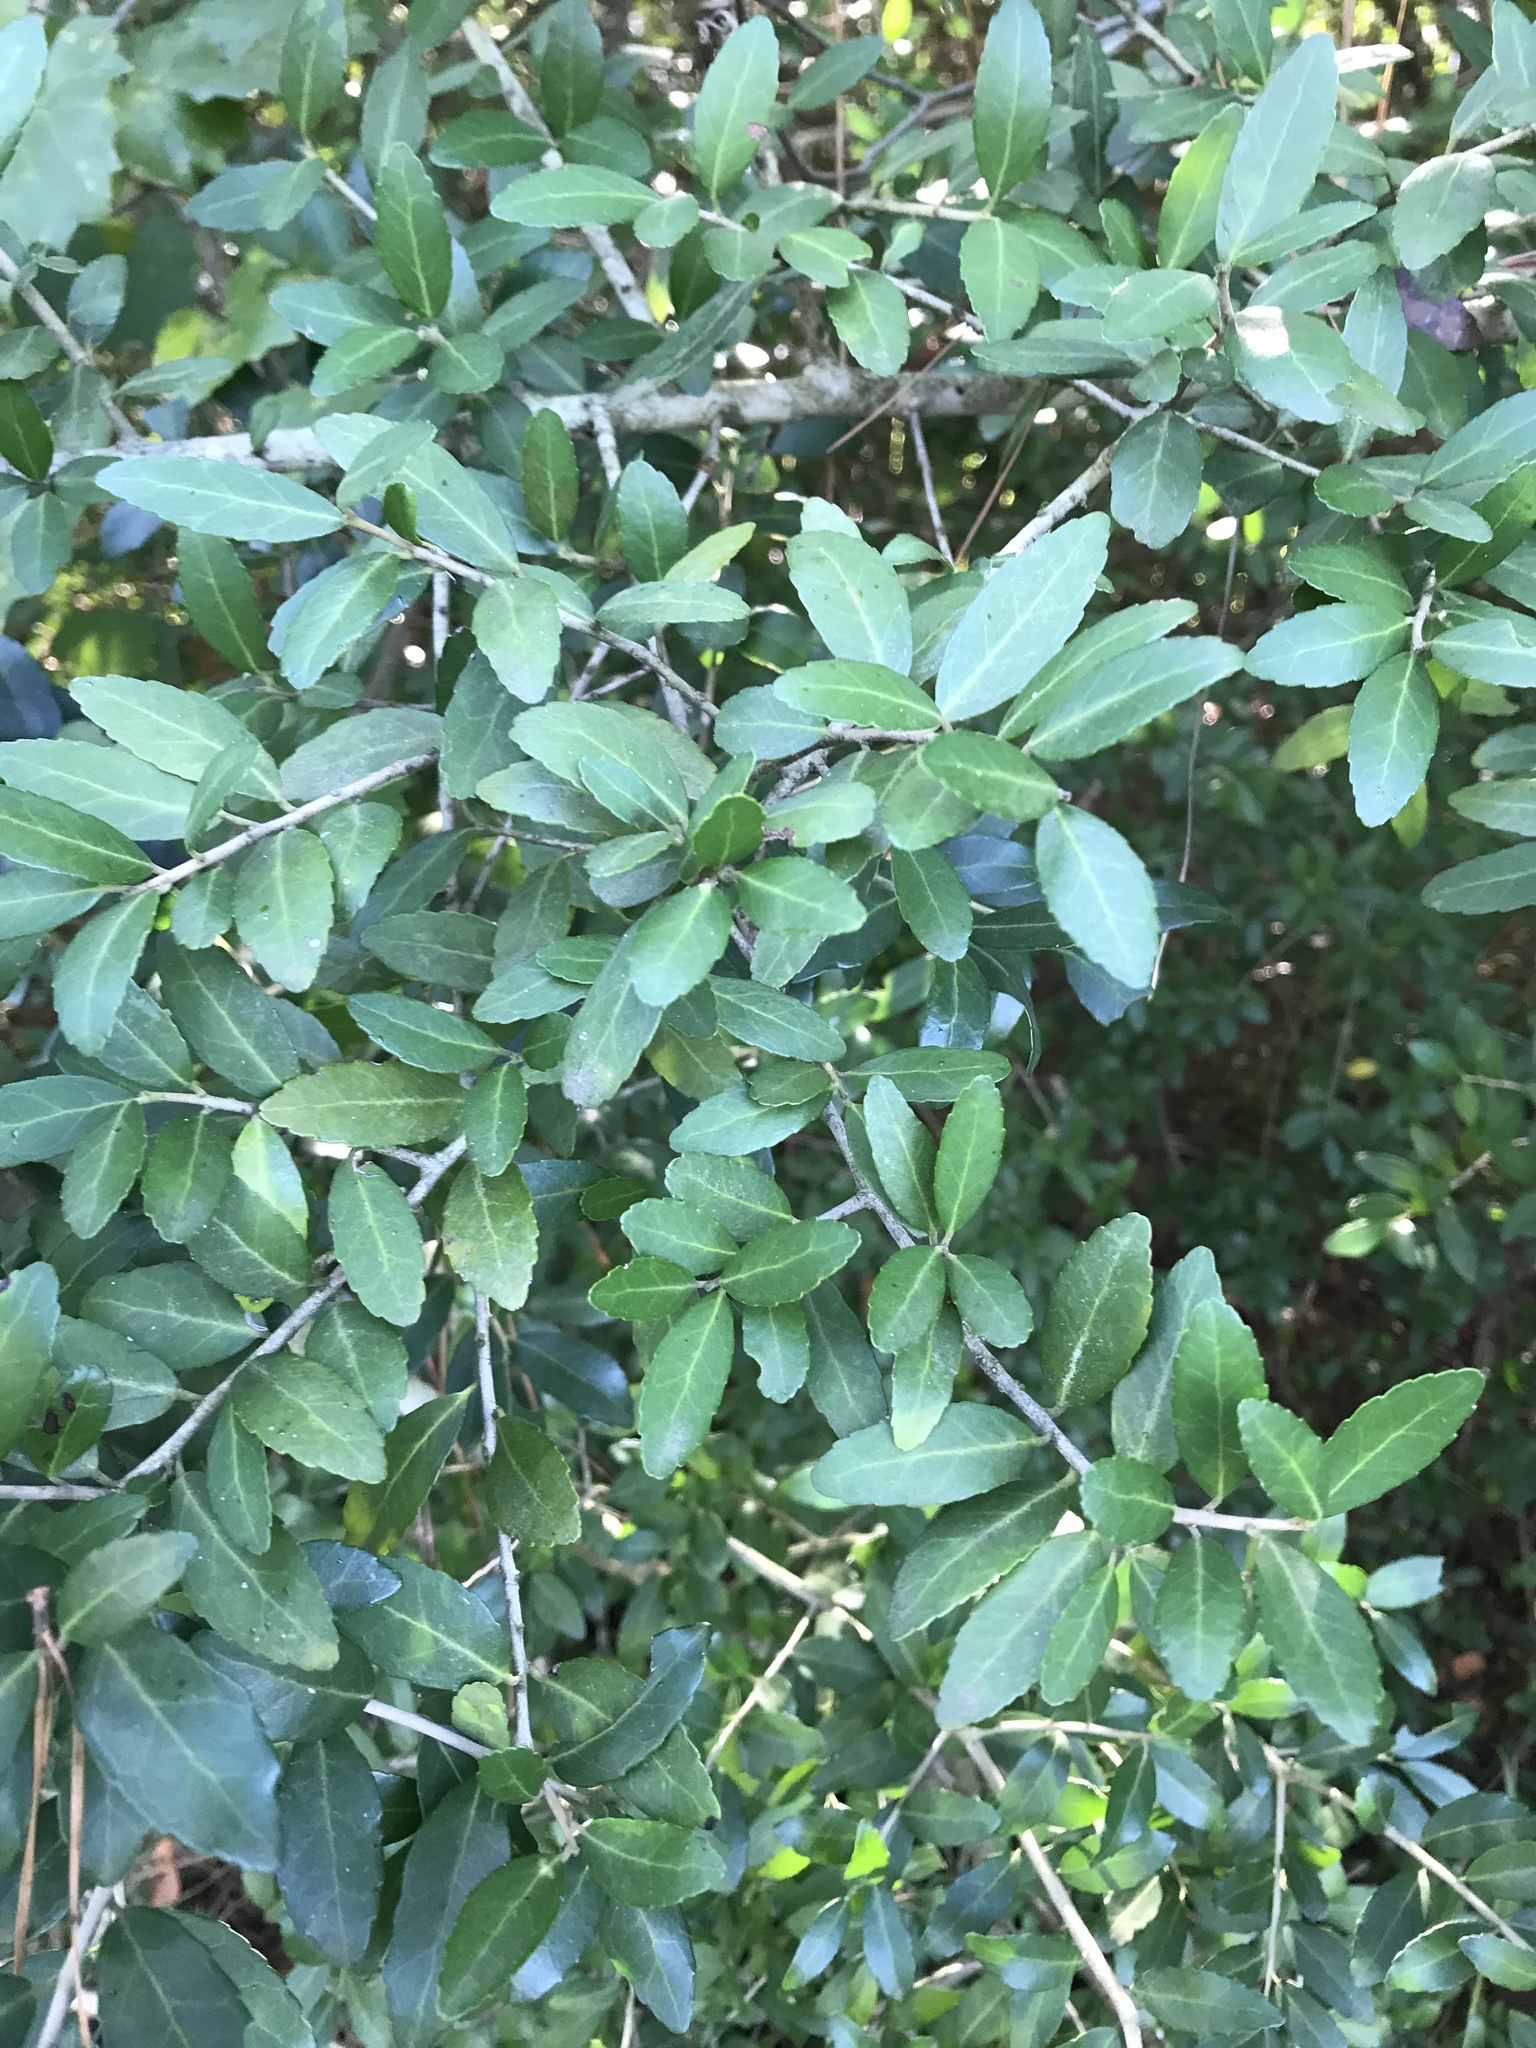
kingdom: Plantae
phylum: Tracheophyta
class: Magnoliopsida
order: Aquifoliales
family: Aquifoliaceae
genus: Ilex
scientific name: Ilex vomitoria
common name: Yaupon holly
